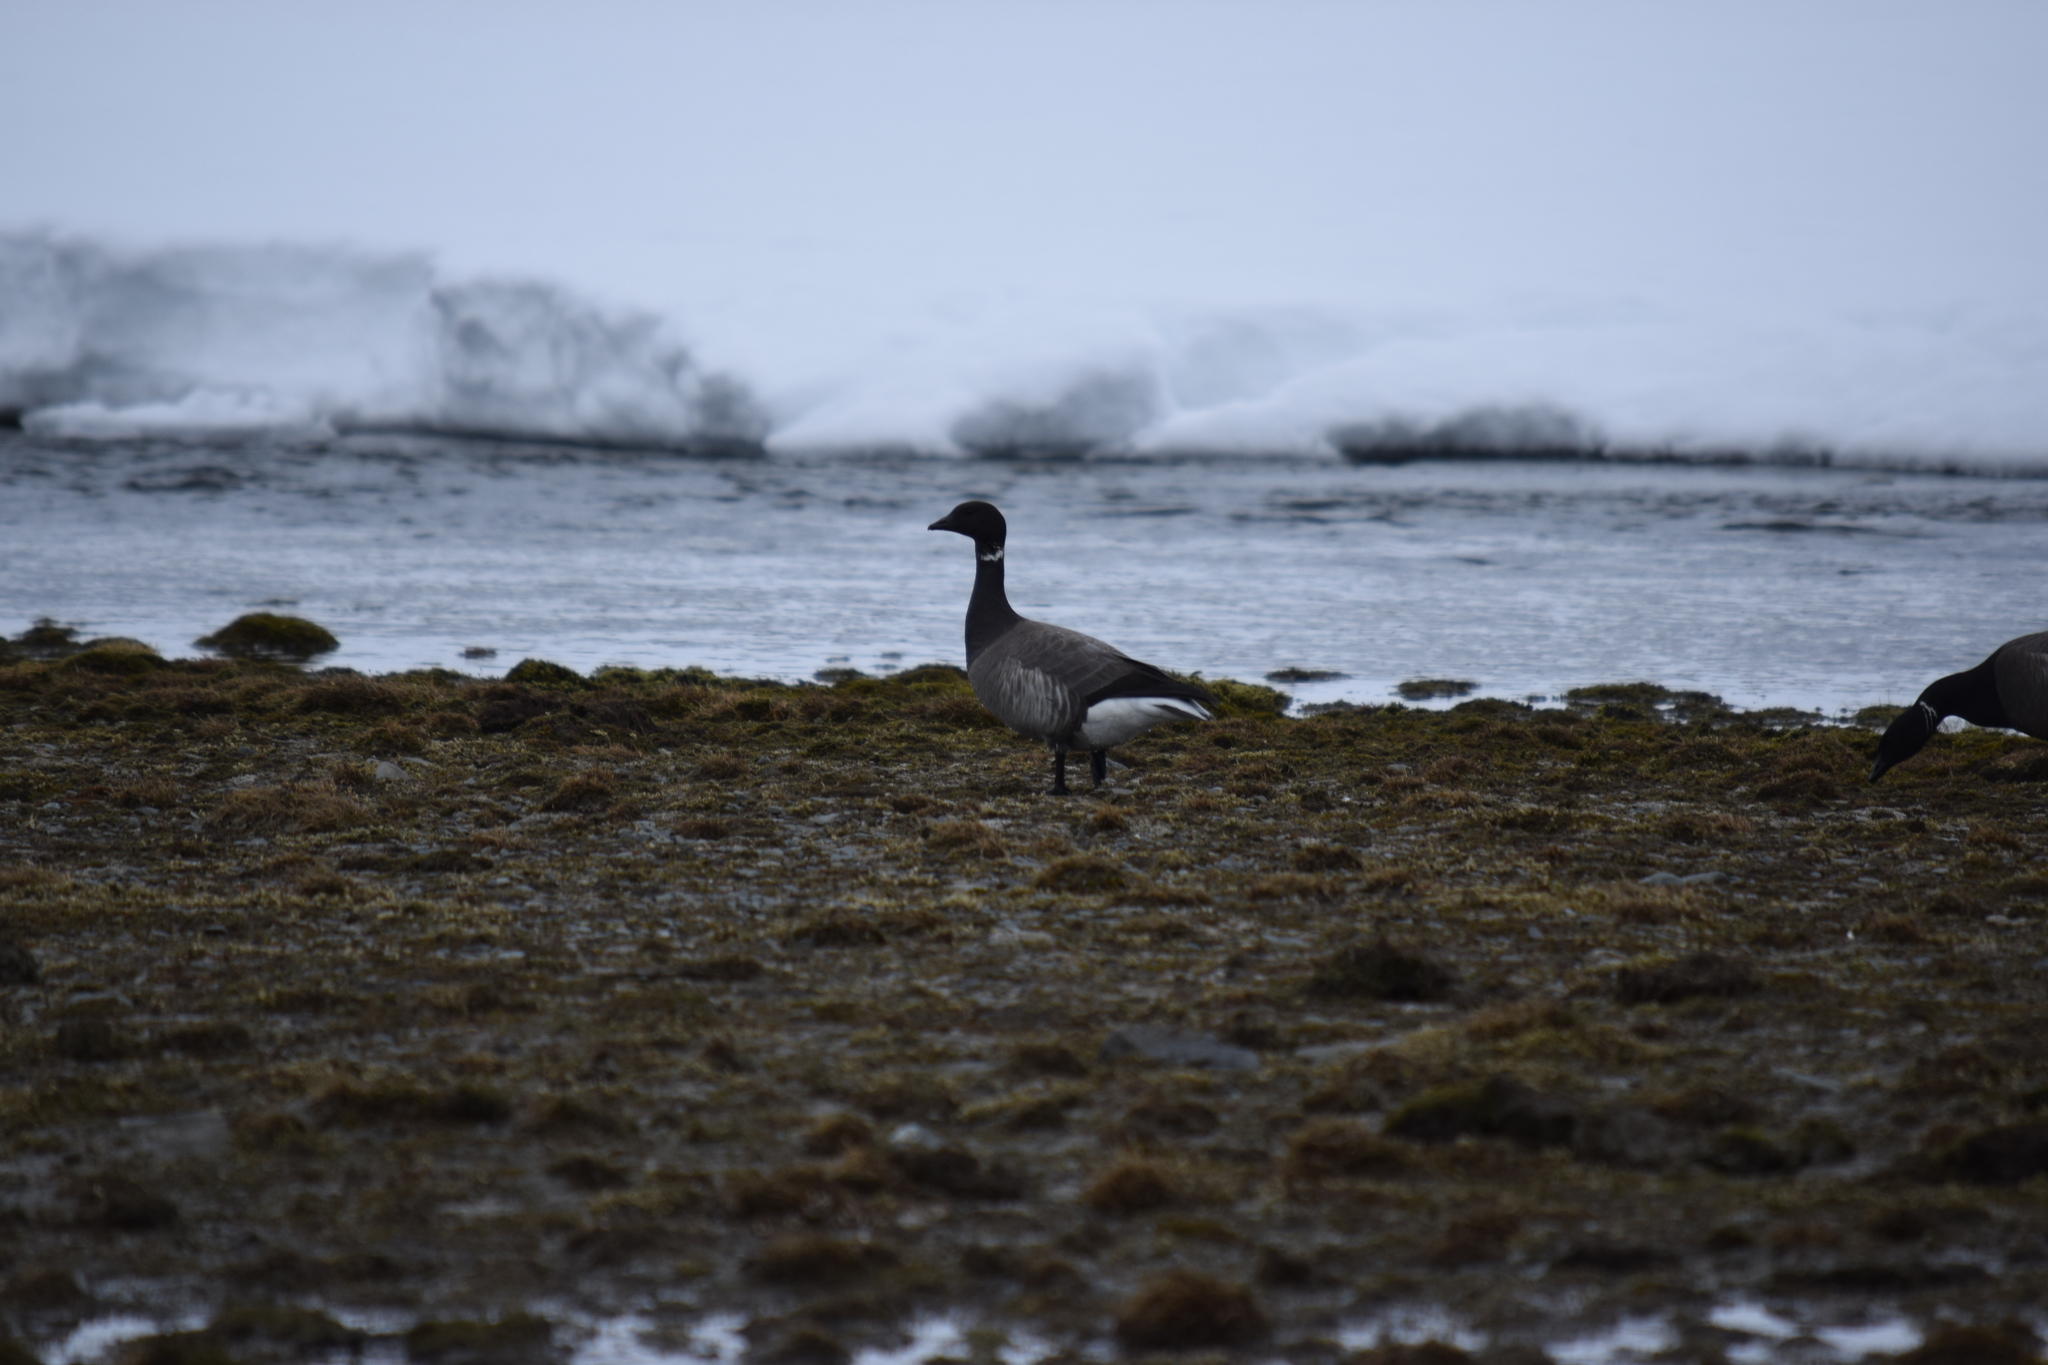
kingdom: Animalia
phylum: Chordata
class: Aves
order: Anseriformes
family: Anatidae
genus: Branta
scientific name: Branta bernicla
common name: Brant goose
